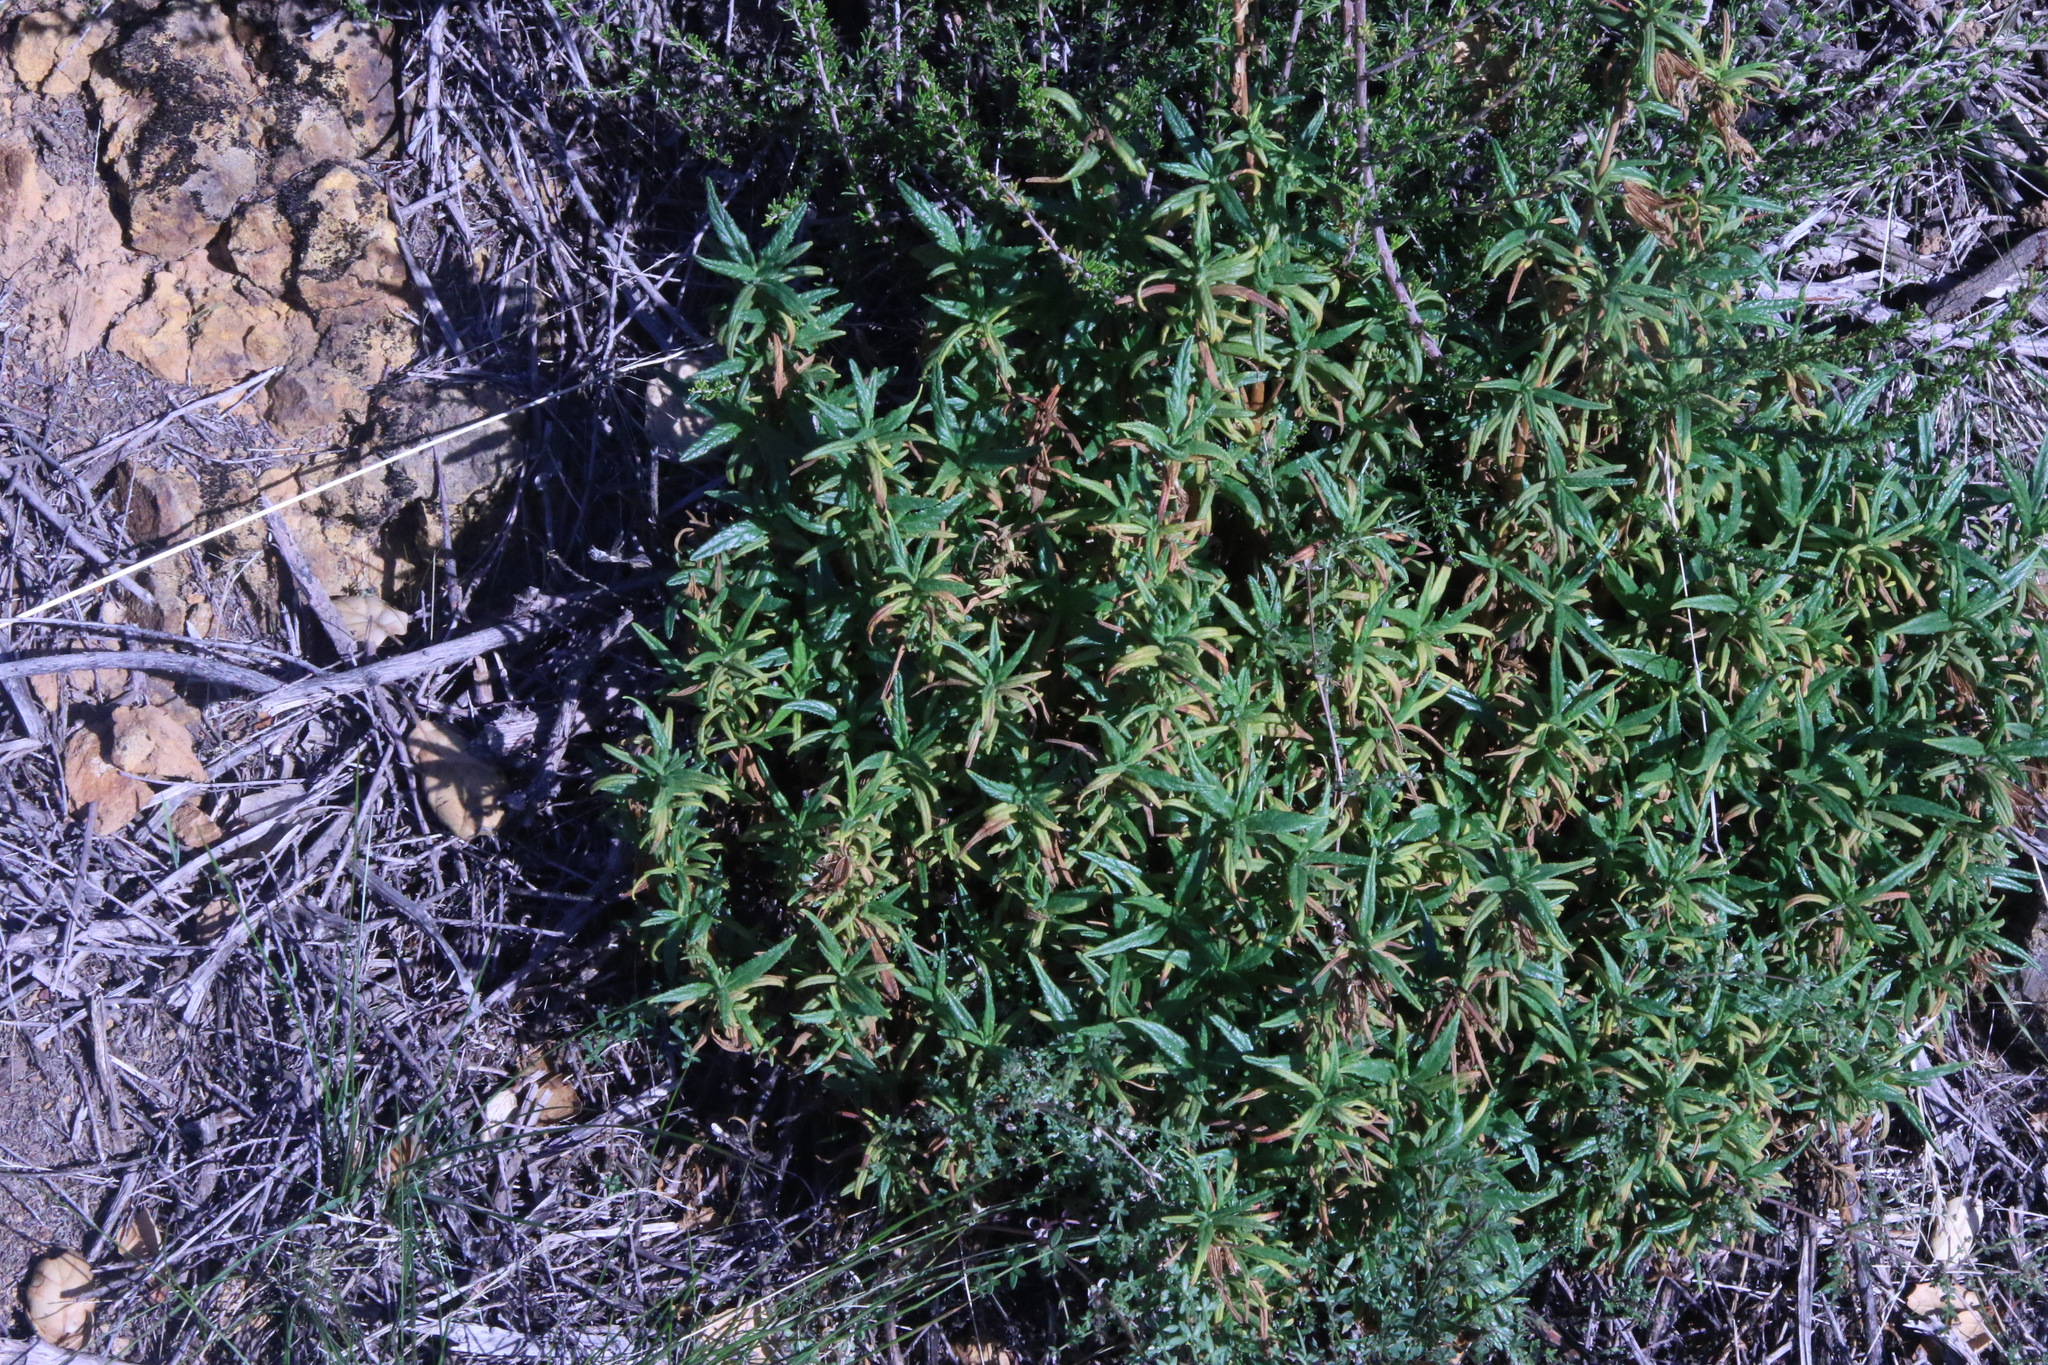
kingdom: Plantae
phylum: Tracheophyta
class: Magnoliopsida
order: Lamiales
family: Phrymaceae
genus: Diplacus
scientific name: Diplacus aurantiacus
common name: Bush monkey-flower
